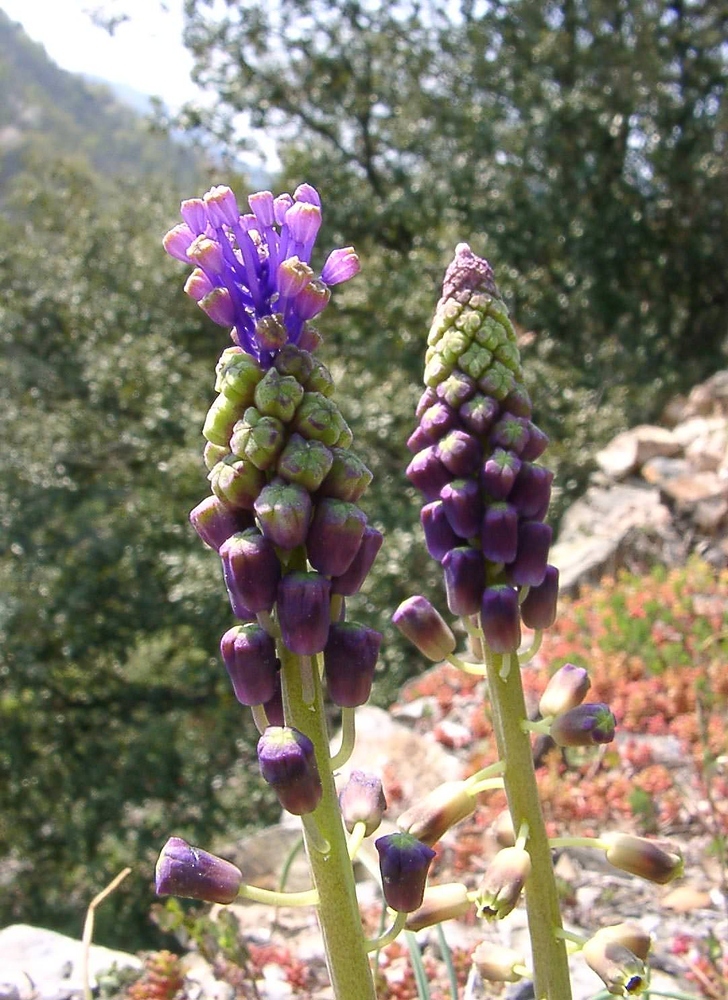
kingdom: Plantae
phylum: Tracheophyta
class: Liliopsida
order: Asparagales
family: Asparagaceae
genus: Muscari
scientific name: Muscari comosum
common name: Tassel hyacinth
